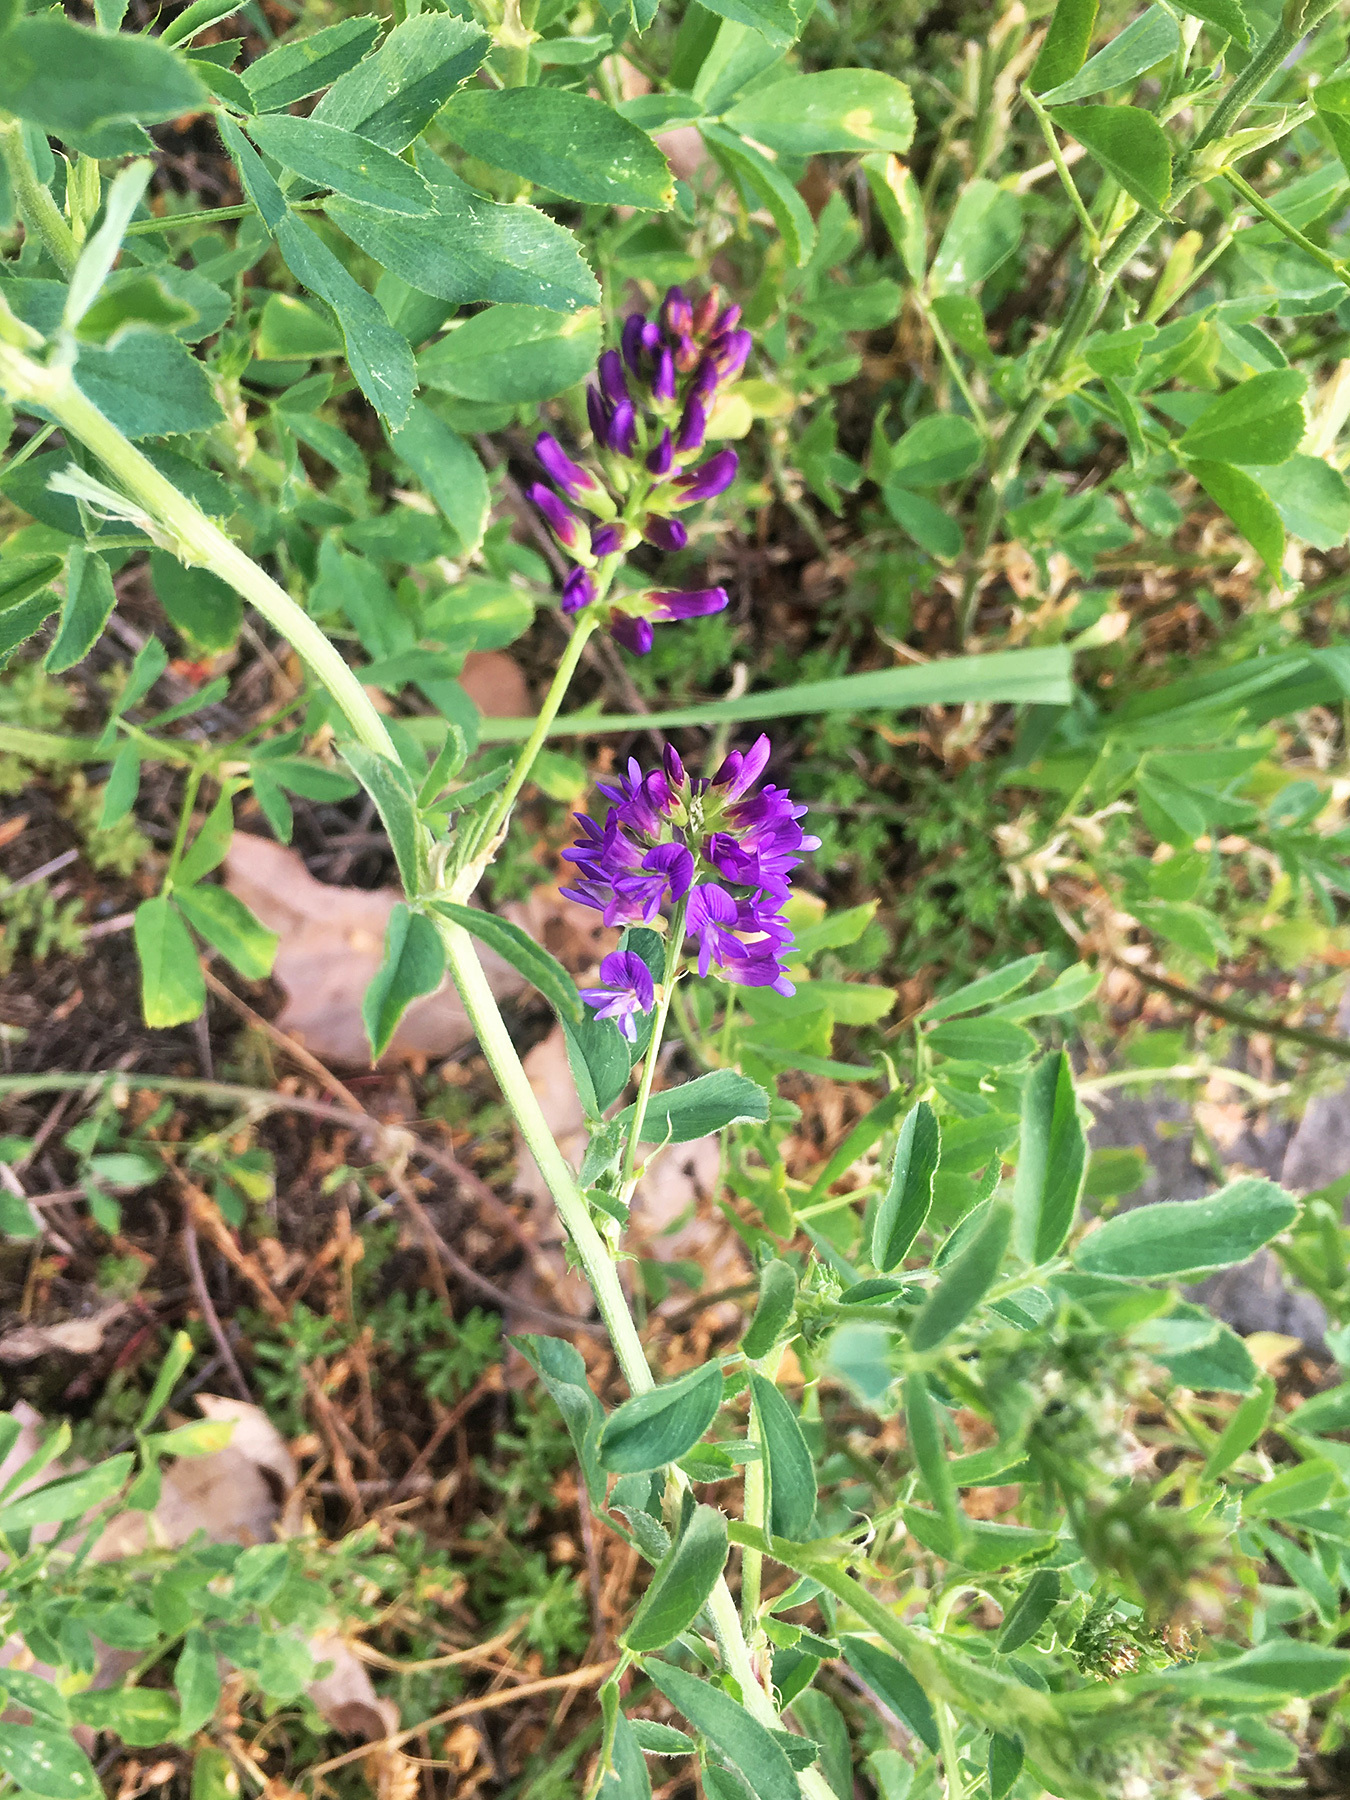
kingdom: Plantae
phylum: Tracheophyta
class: Magnoliopsida
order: Fabales
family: Fabaceae
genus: Medicago
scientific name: Medicago sativa
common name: Alfalfa
